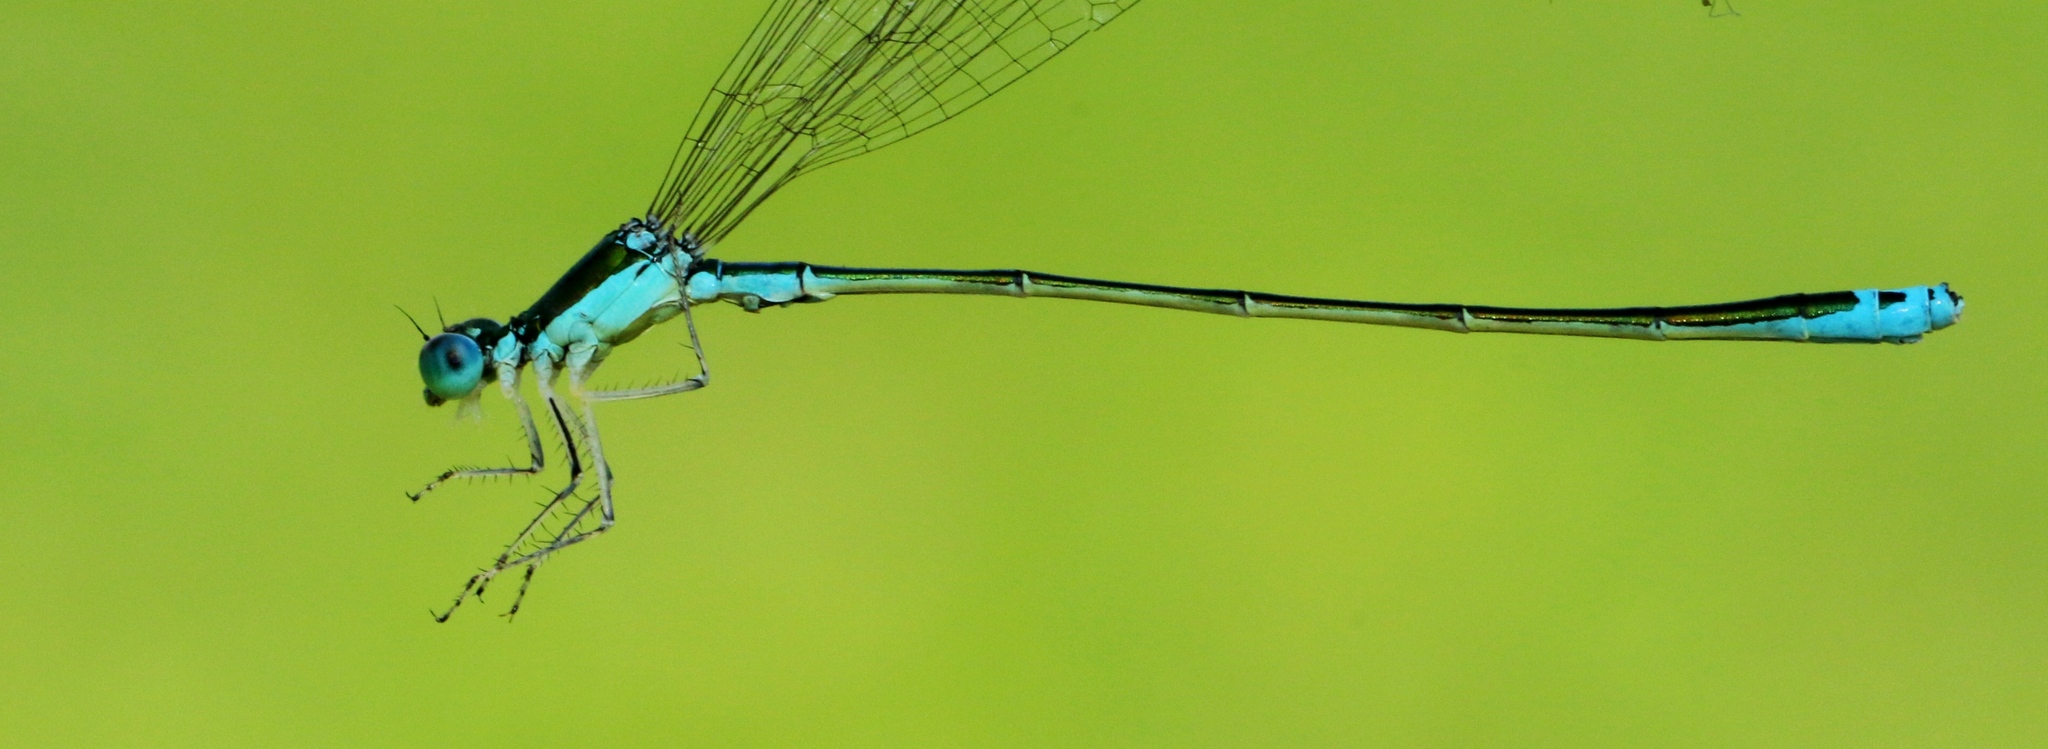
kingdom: Animalia
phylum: Arthropoda
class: Insecta
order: Odonata
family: Coenagrionidae
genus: Nehalennia
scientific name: Nehalennia irene
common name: Sedge sprite
